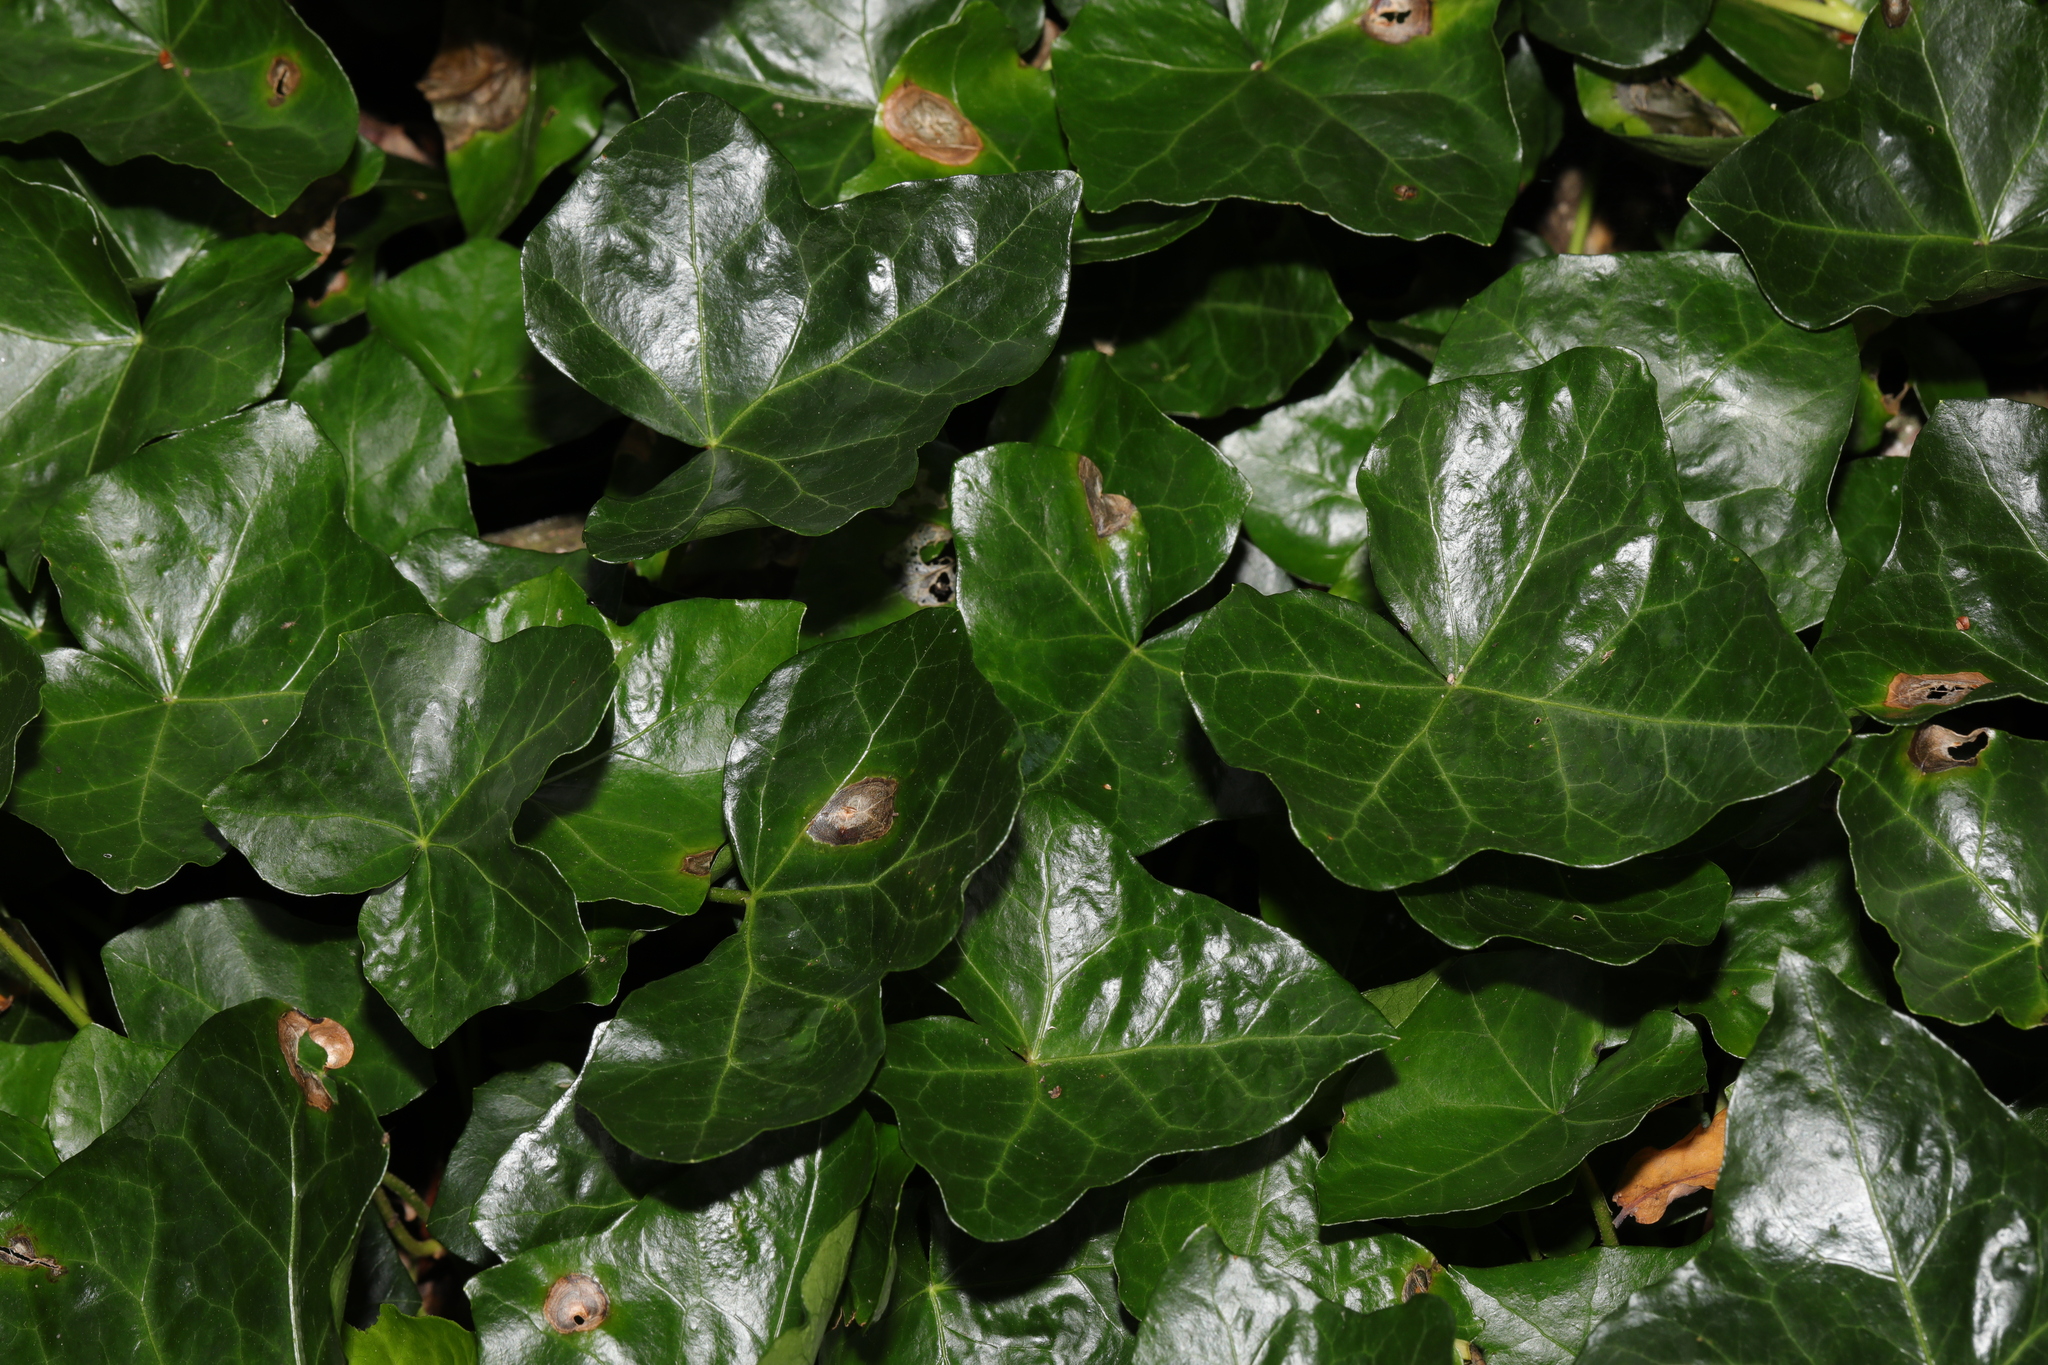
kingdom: Plantae
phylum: Tracheophyta
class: Magnoliopsida
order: Apiales
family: Araliaceae
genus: Hedera
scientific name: Hedera helix
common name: Ivy
